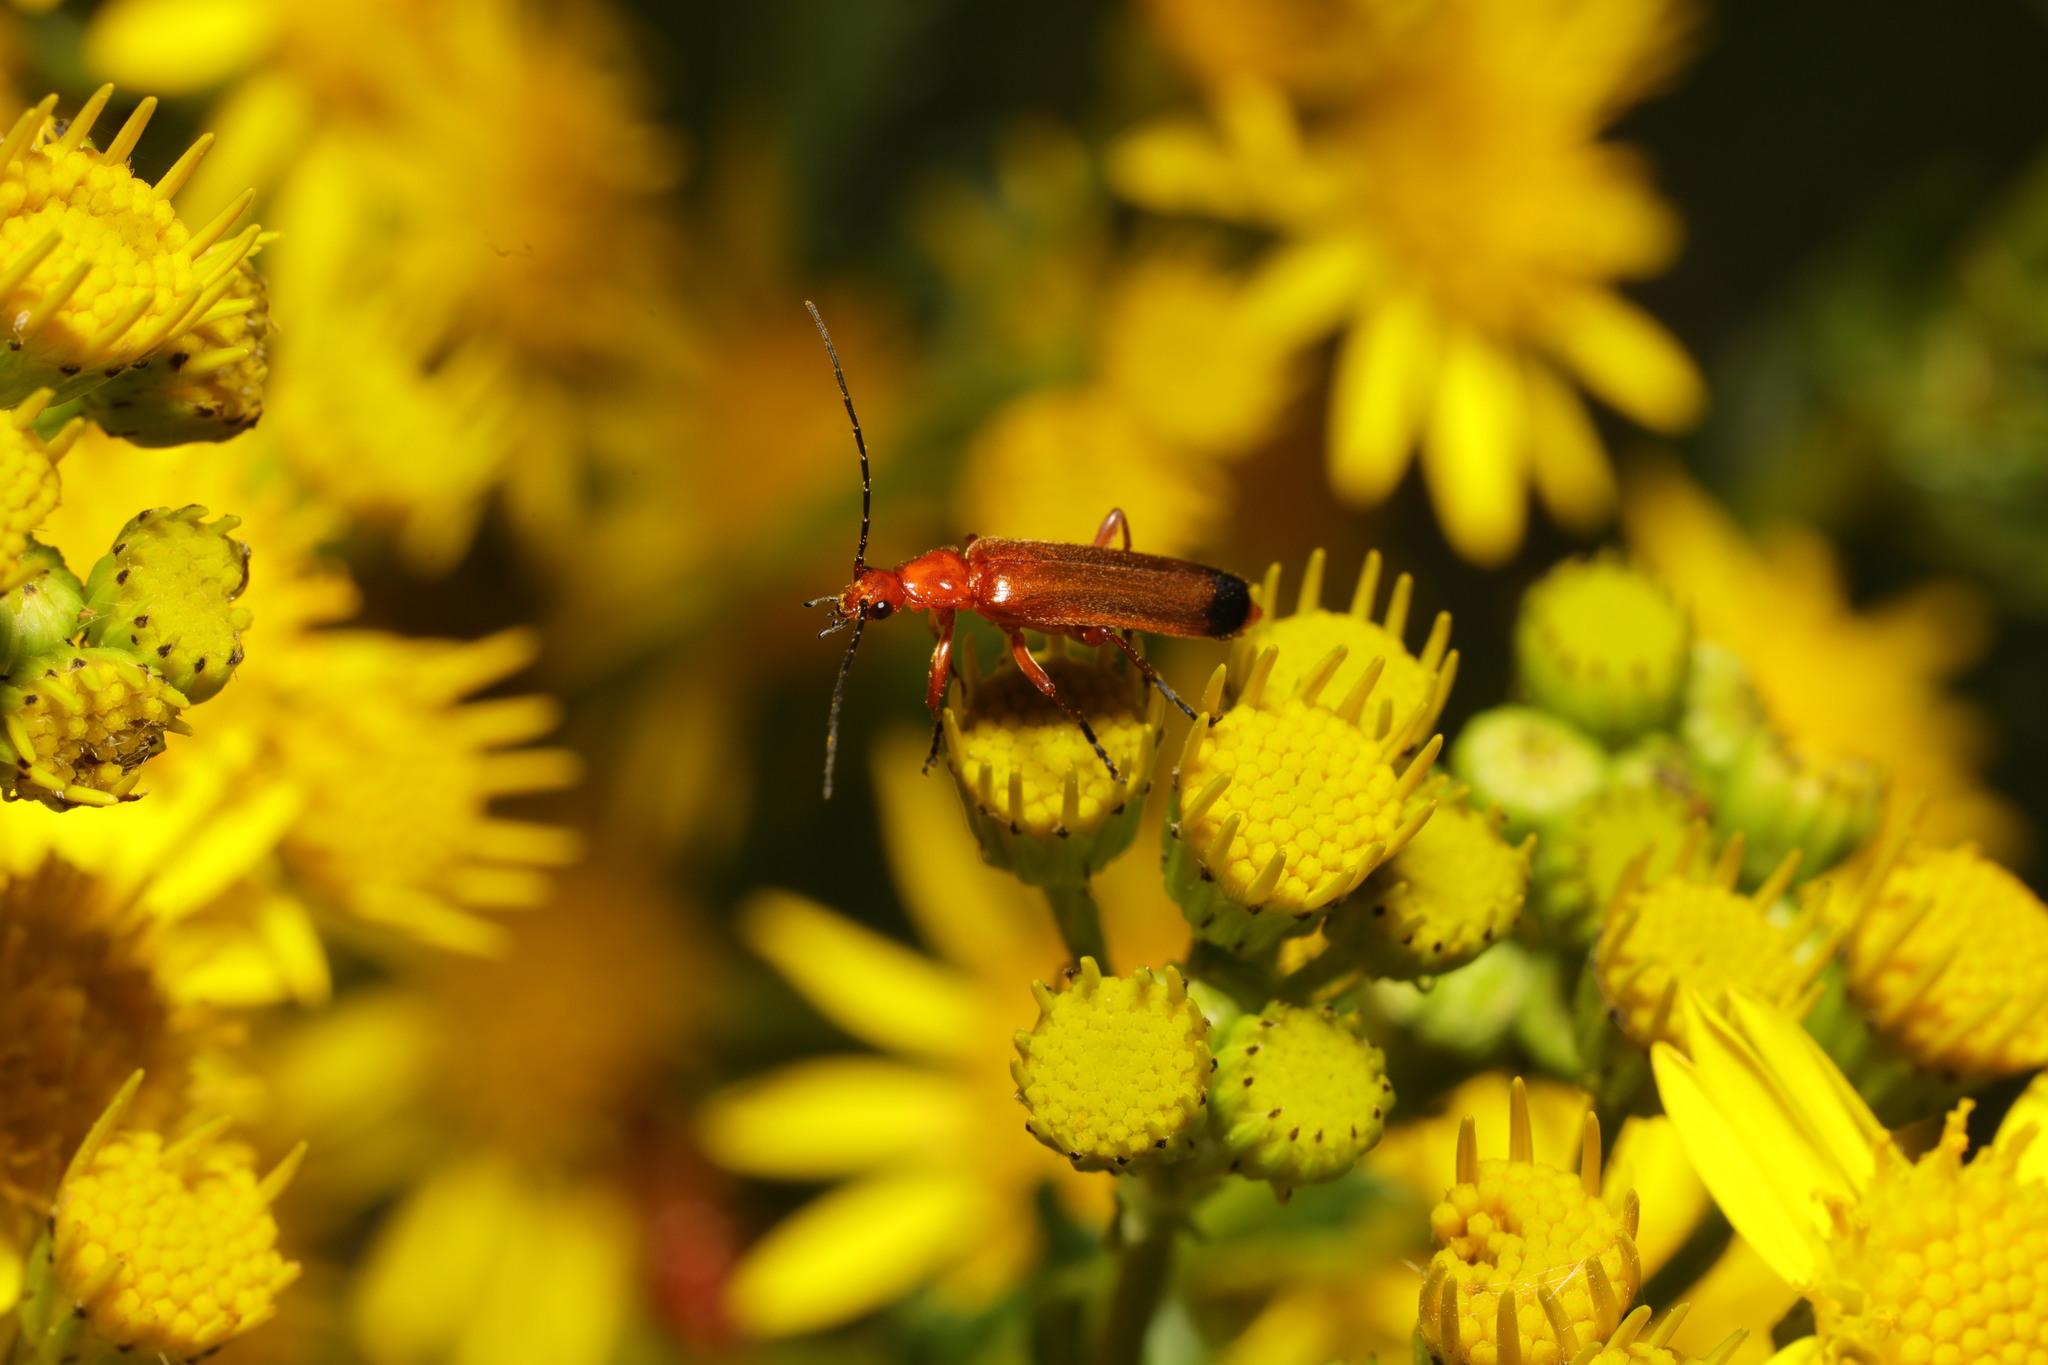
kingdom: Animalia
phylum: Arthropoda
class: Insecta
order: Coleoptera
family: Cantharidae
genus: Rhagonycha
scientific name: Rhagonycha fulva
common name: Common red soldier beetle
